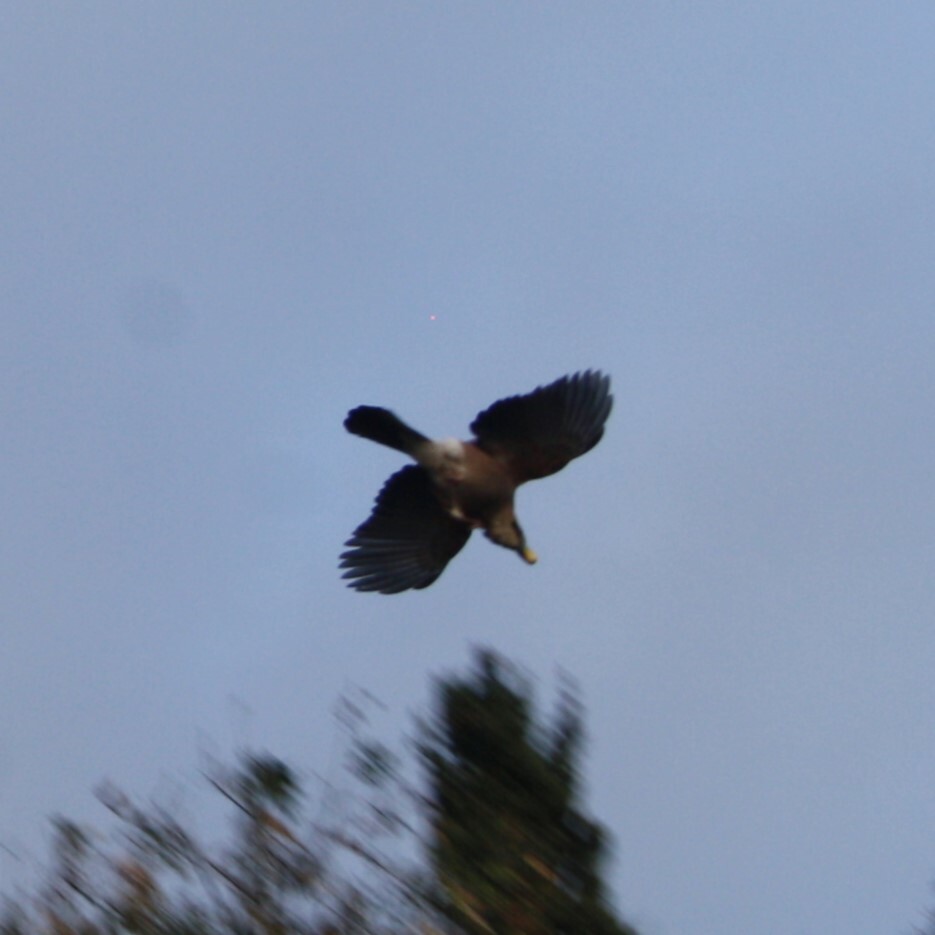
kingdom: Animalia
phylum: Chordata
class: Aves
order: Passeriformes
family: Corvidae
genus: Garrulus
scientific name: Garrulus glandarius
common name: Eurasian jay
